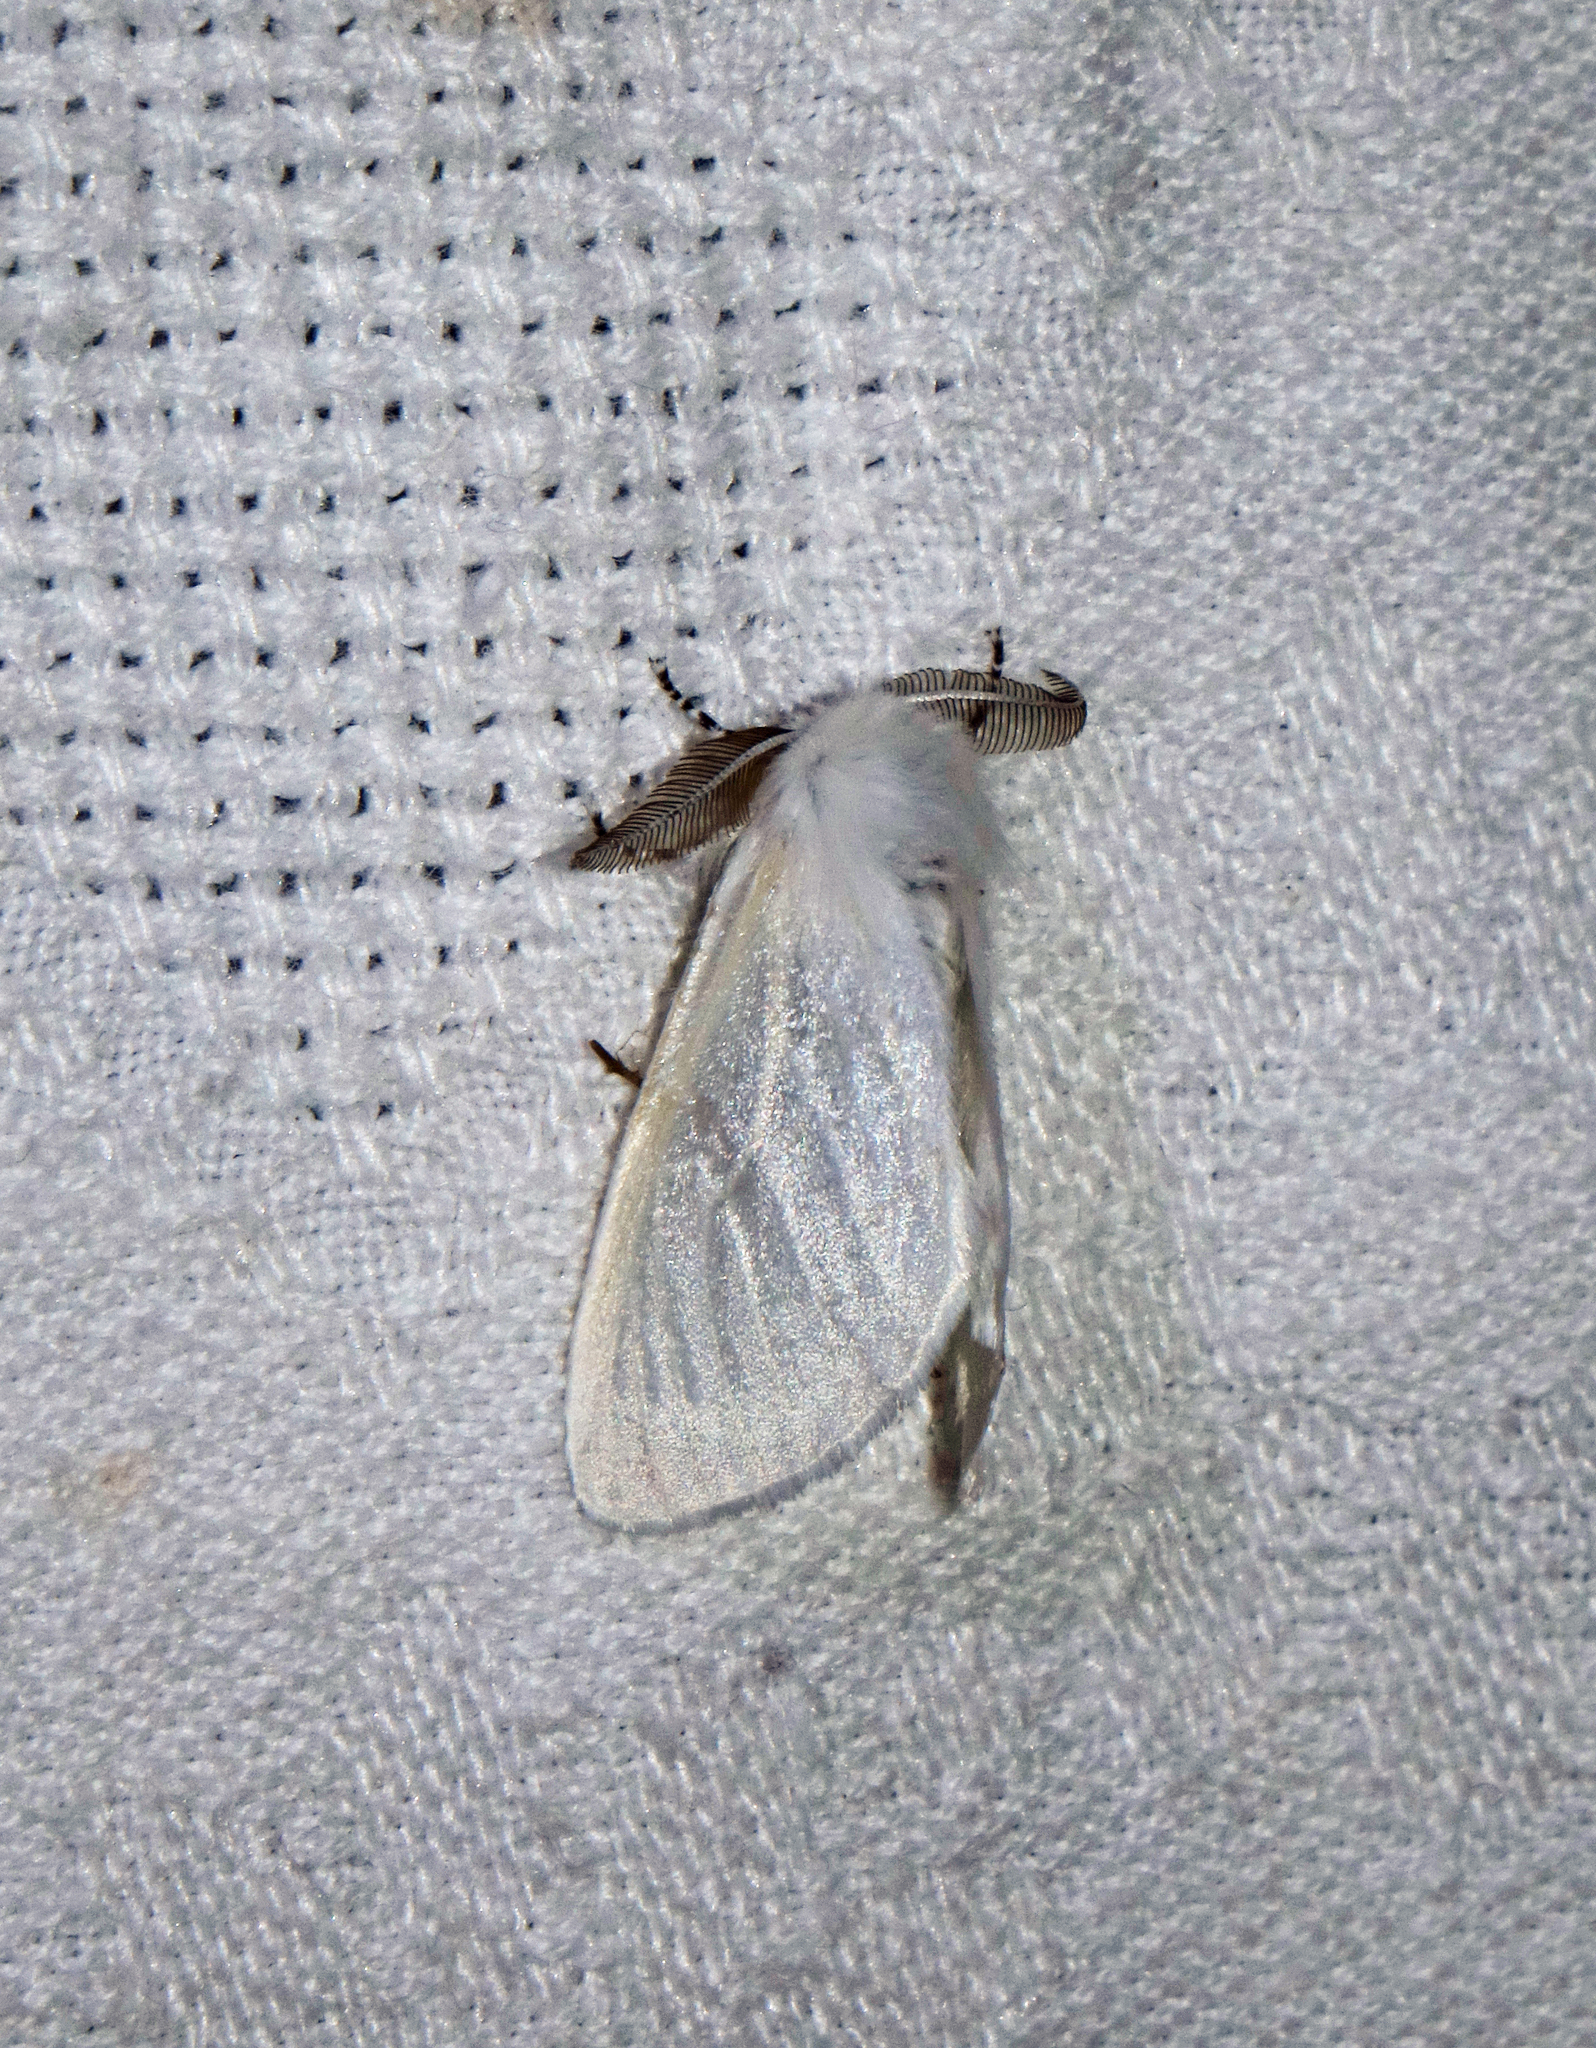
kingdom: Animalia
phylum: Arthropoda
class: Insecta
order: Lepidoptera
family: Erebidae
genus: Leucoma
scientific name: Leucoma salicis
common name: White satin moth
